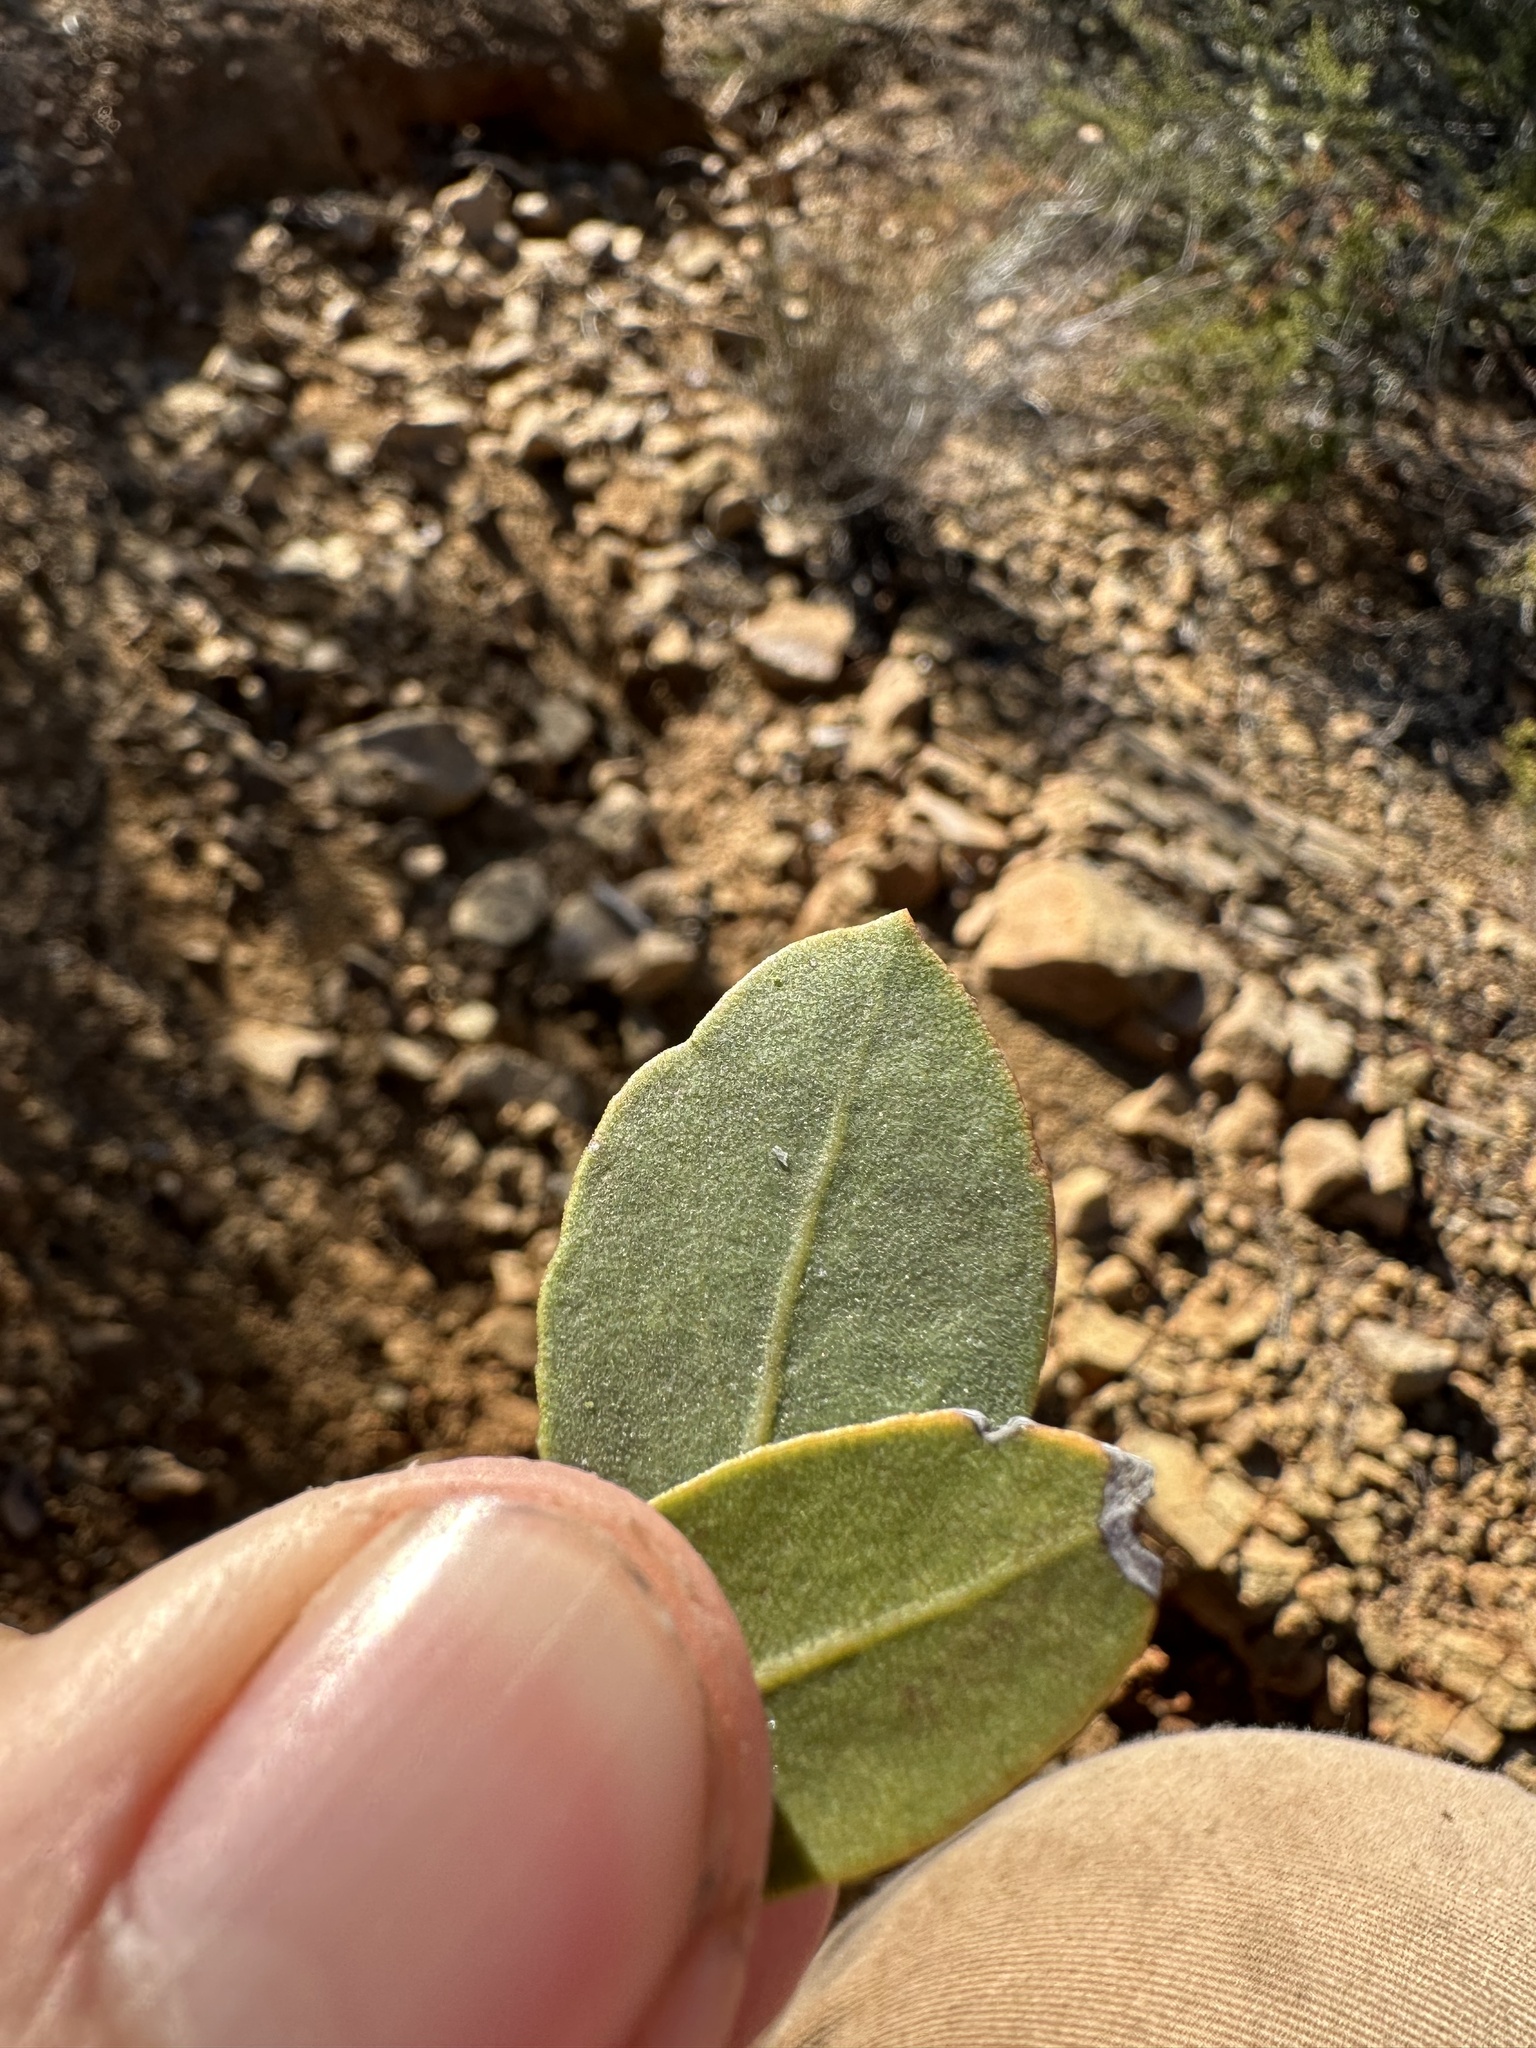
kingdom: Plantae
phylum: Tracheophyta
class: Magnoliopsida
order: Ericales
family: Ericaceae
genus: Arctostaphylos
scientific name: Arctostaphylos glandulosa
